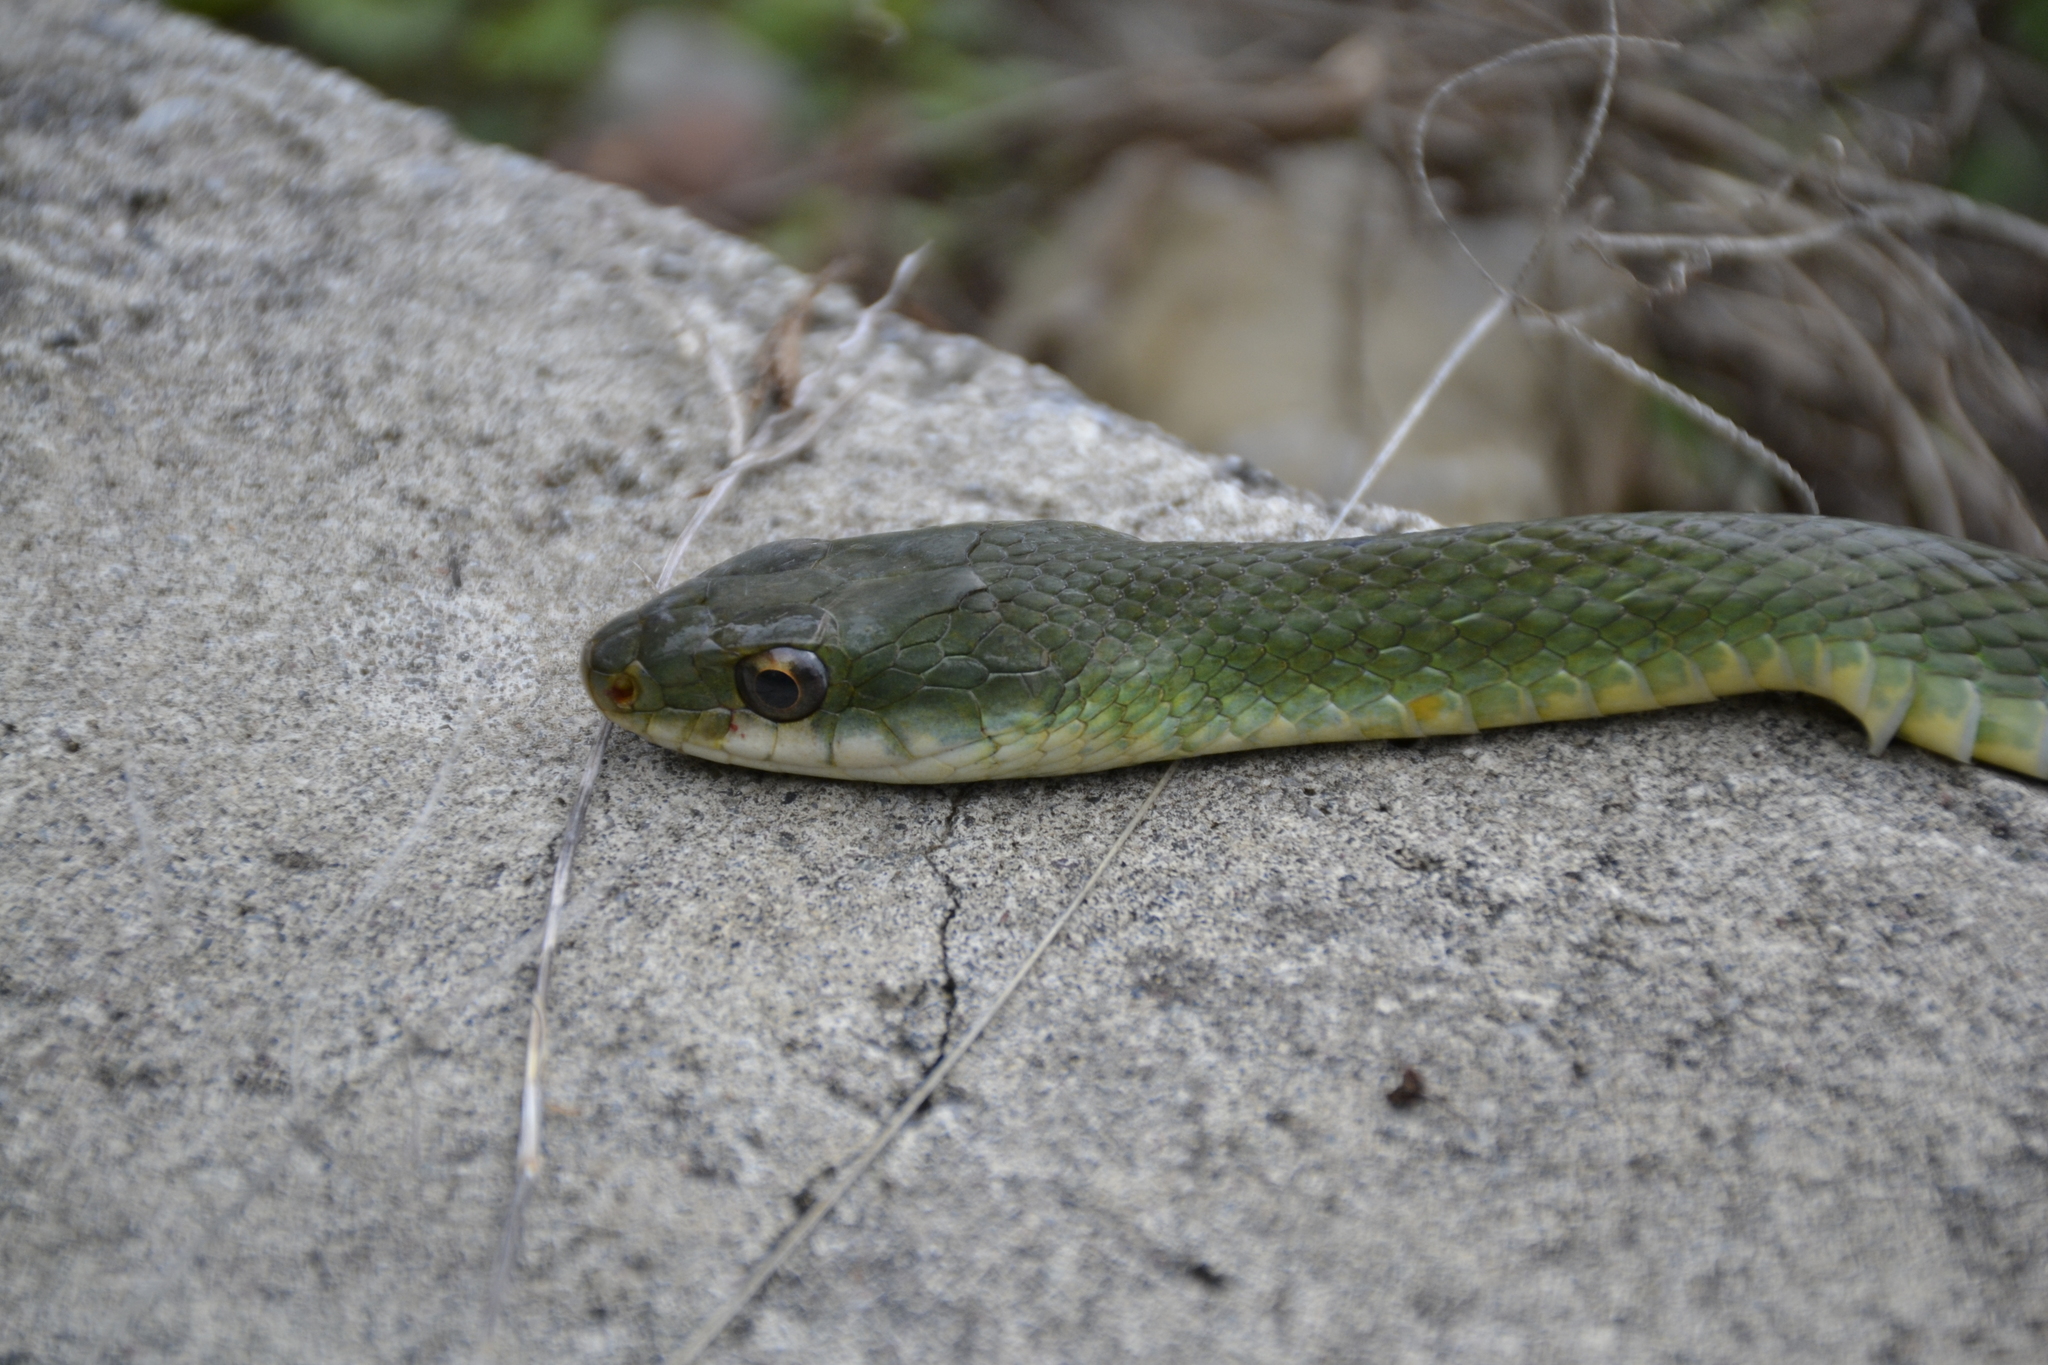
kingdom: Animalia
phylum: Chordata
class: Squamata
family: Colubridae
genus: Mastigodryas
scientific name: Mastigodryas melanolomus
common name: Salmon-bellied racer
